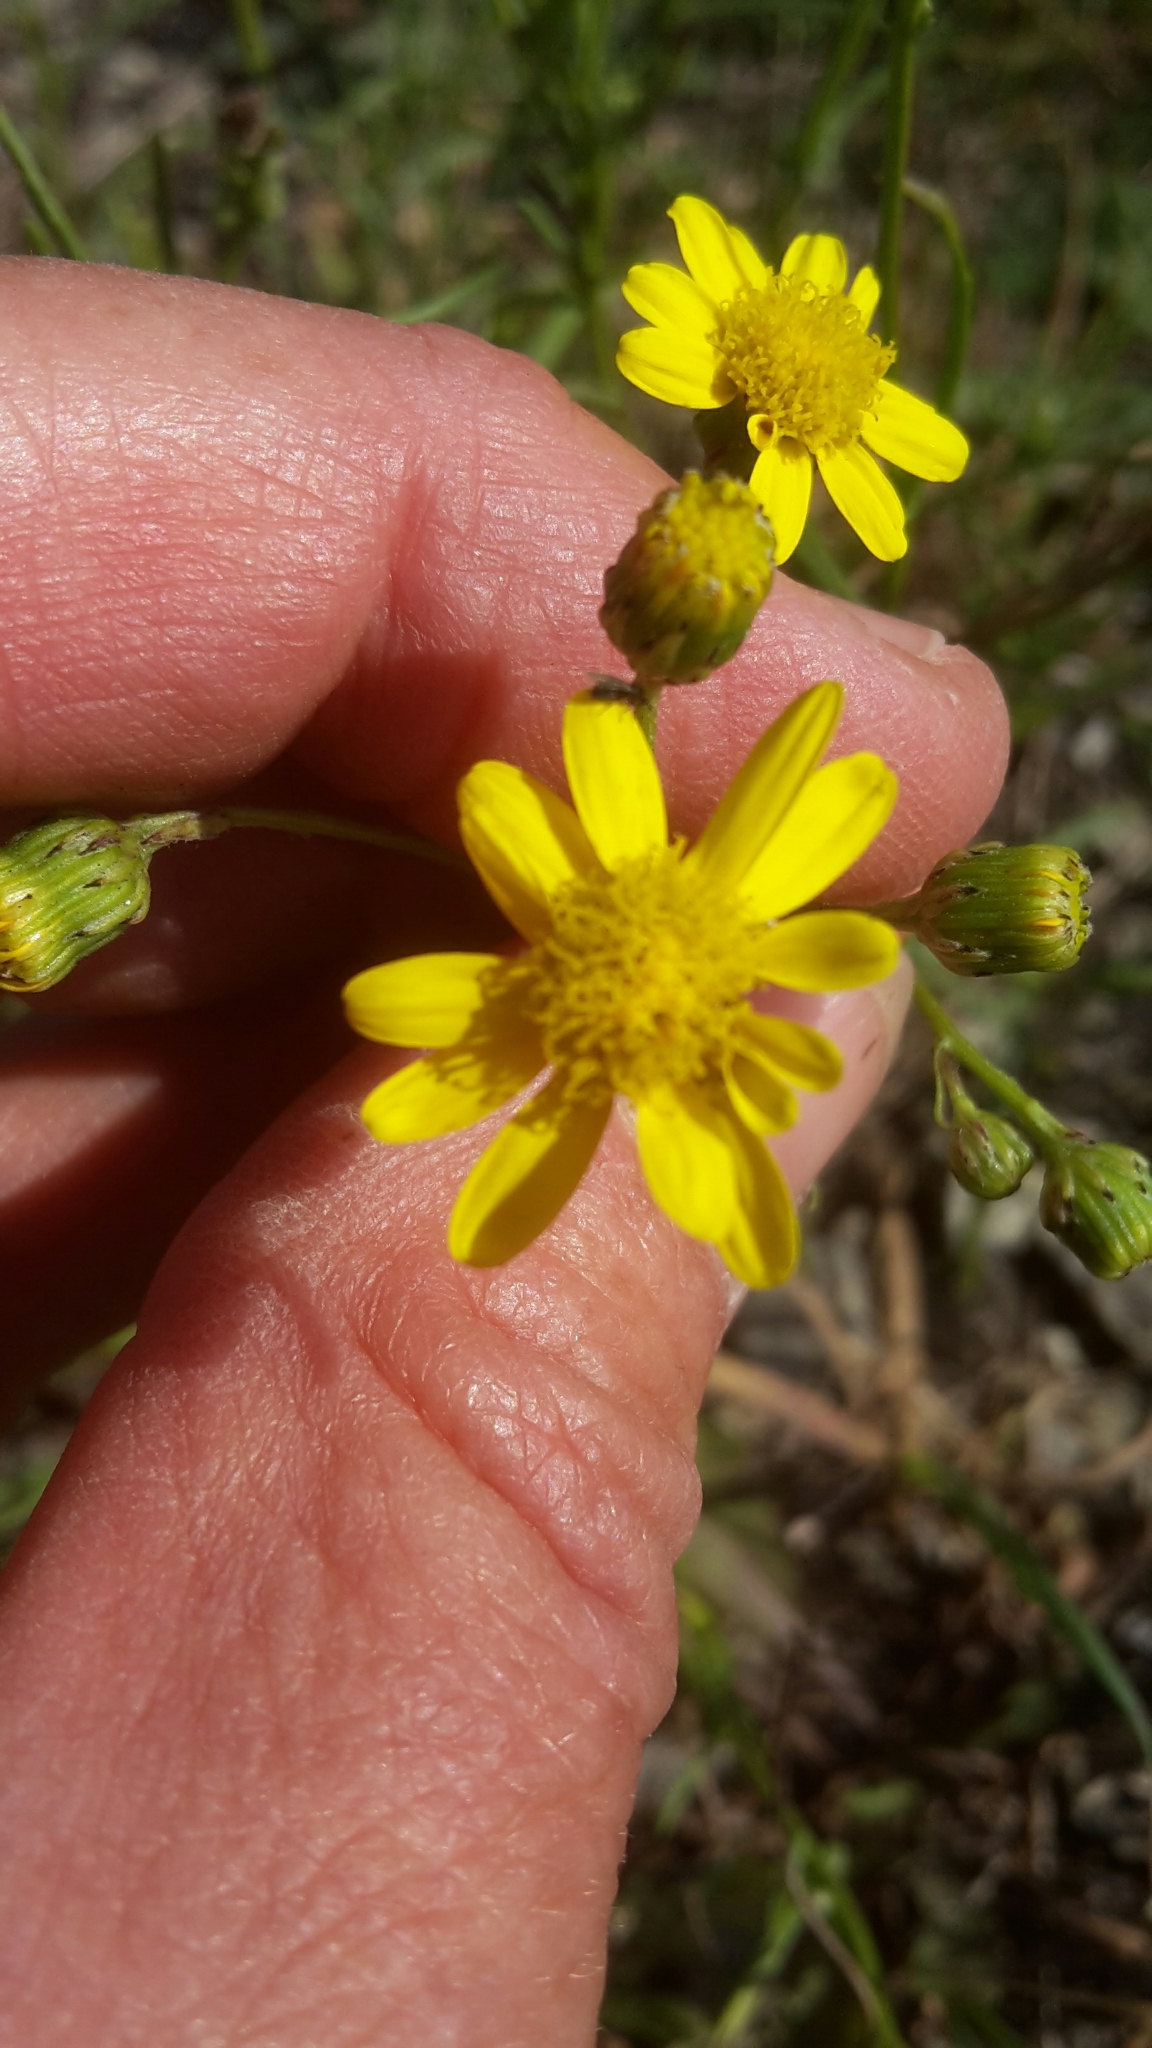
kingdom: Plantae
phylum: Tracheophyta
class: Magnoliopsida
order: Asterales
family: Asteraceae
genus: Senecio
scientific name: Senecio inaequidens
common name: Narrow-leaved ragwort
